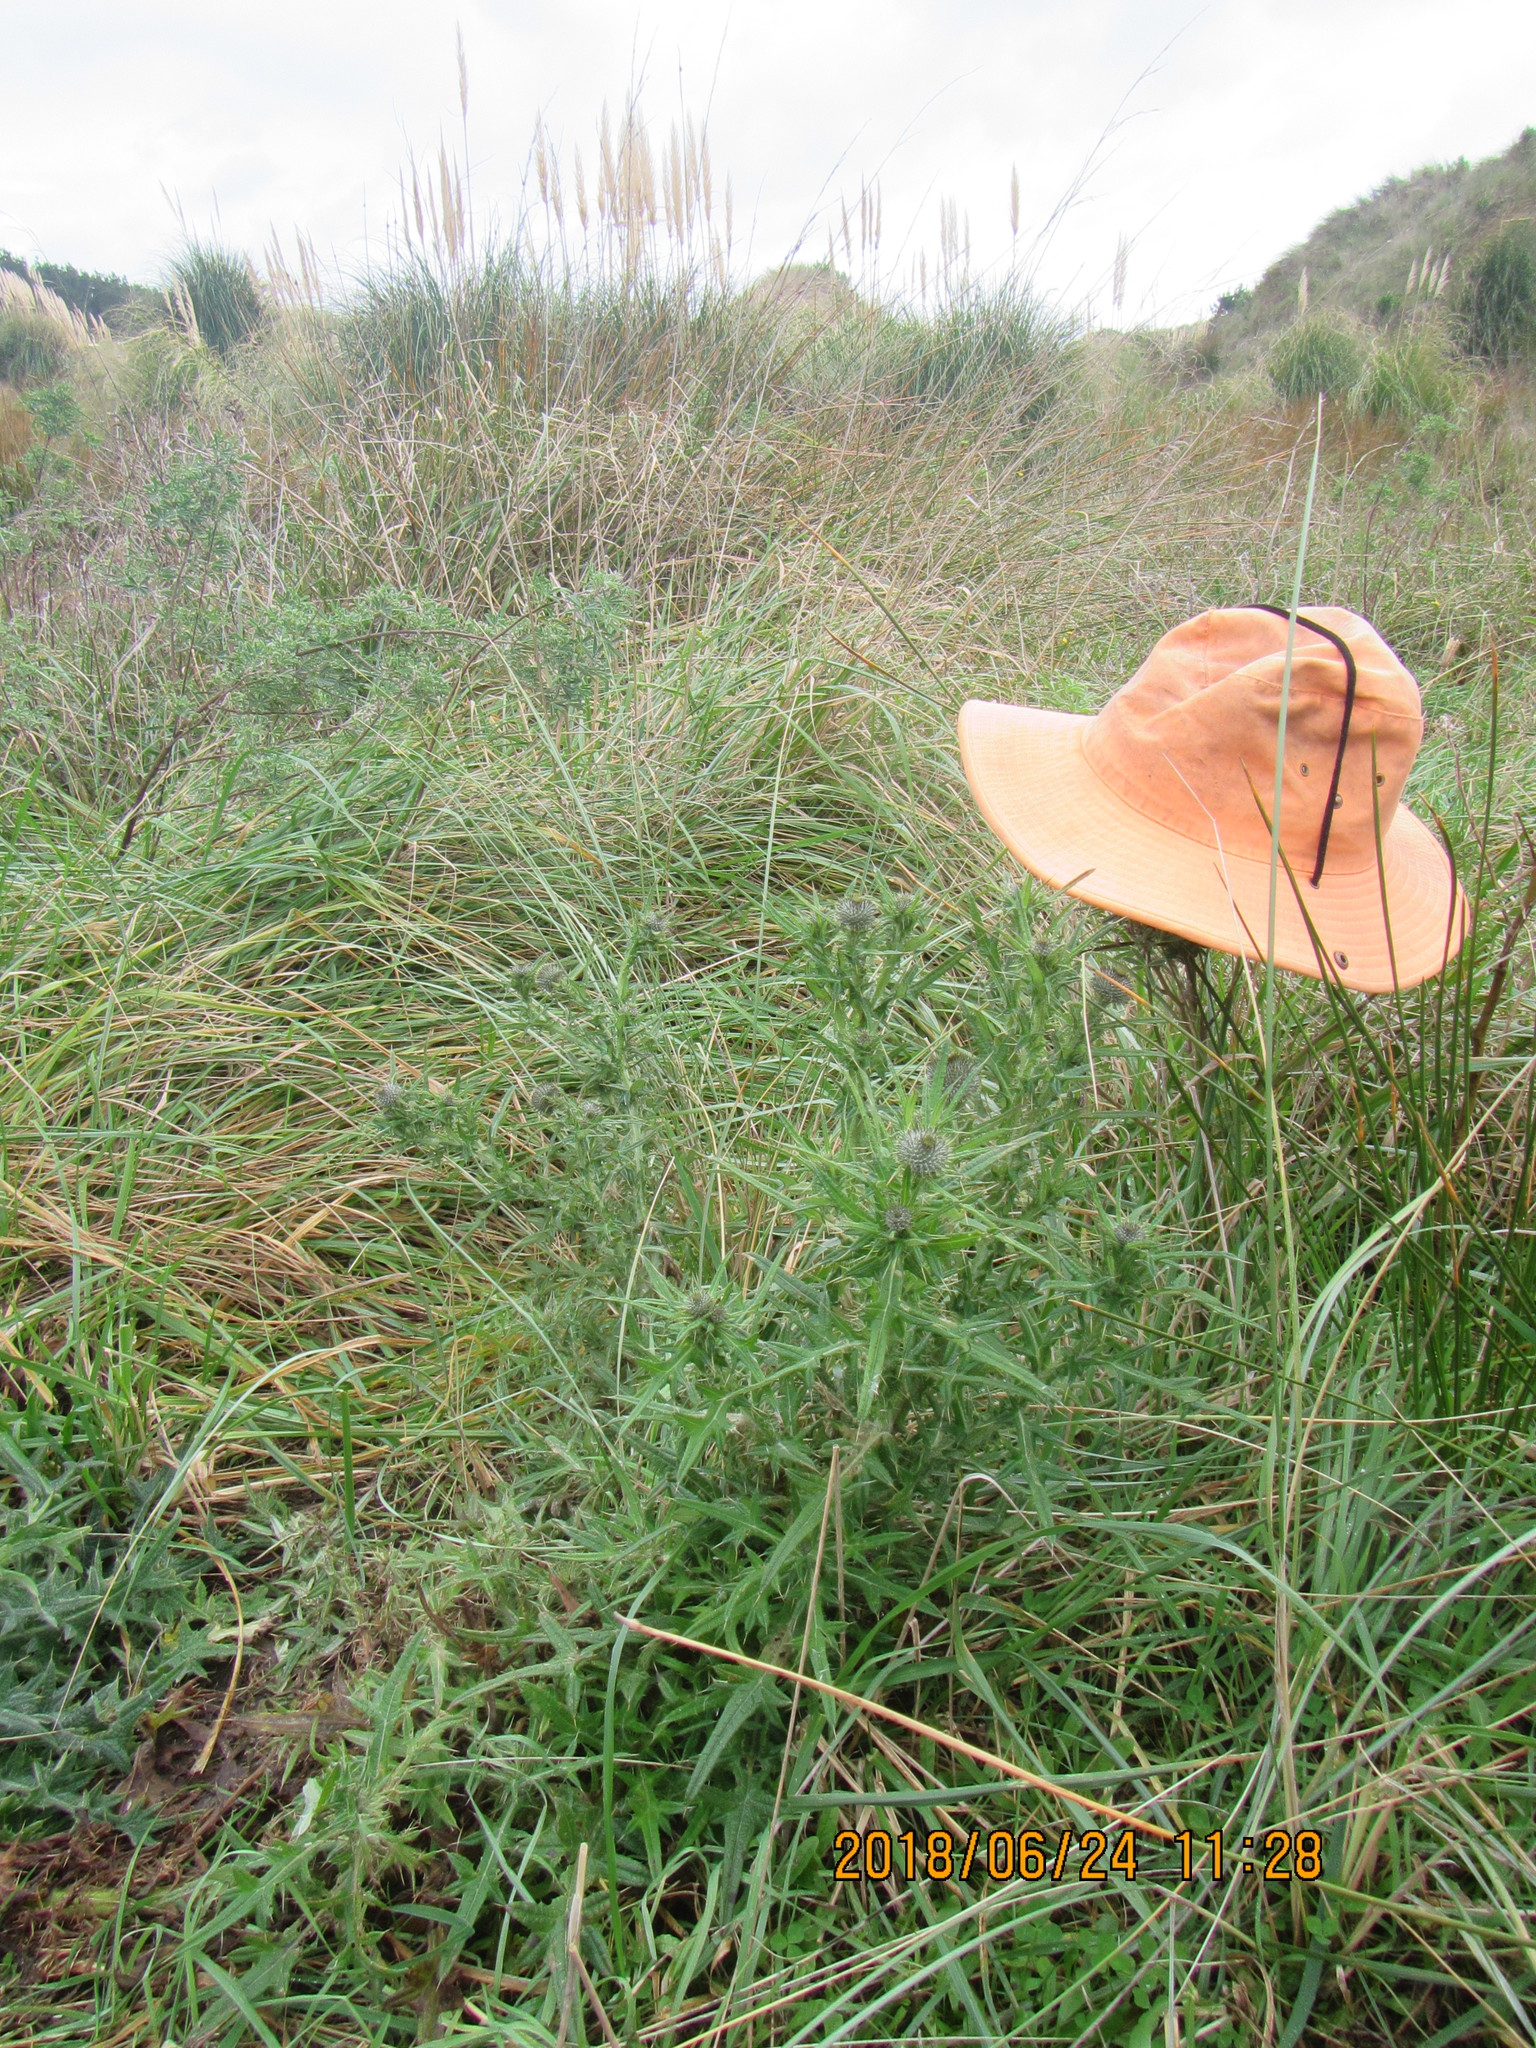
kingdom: Plantae
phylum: Tracheophyta
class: Magnoliopsida
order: Asterales
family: Asteraceae
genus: Cirsium
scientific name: Cirsium vulgare
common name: Bull thistle
